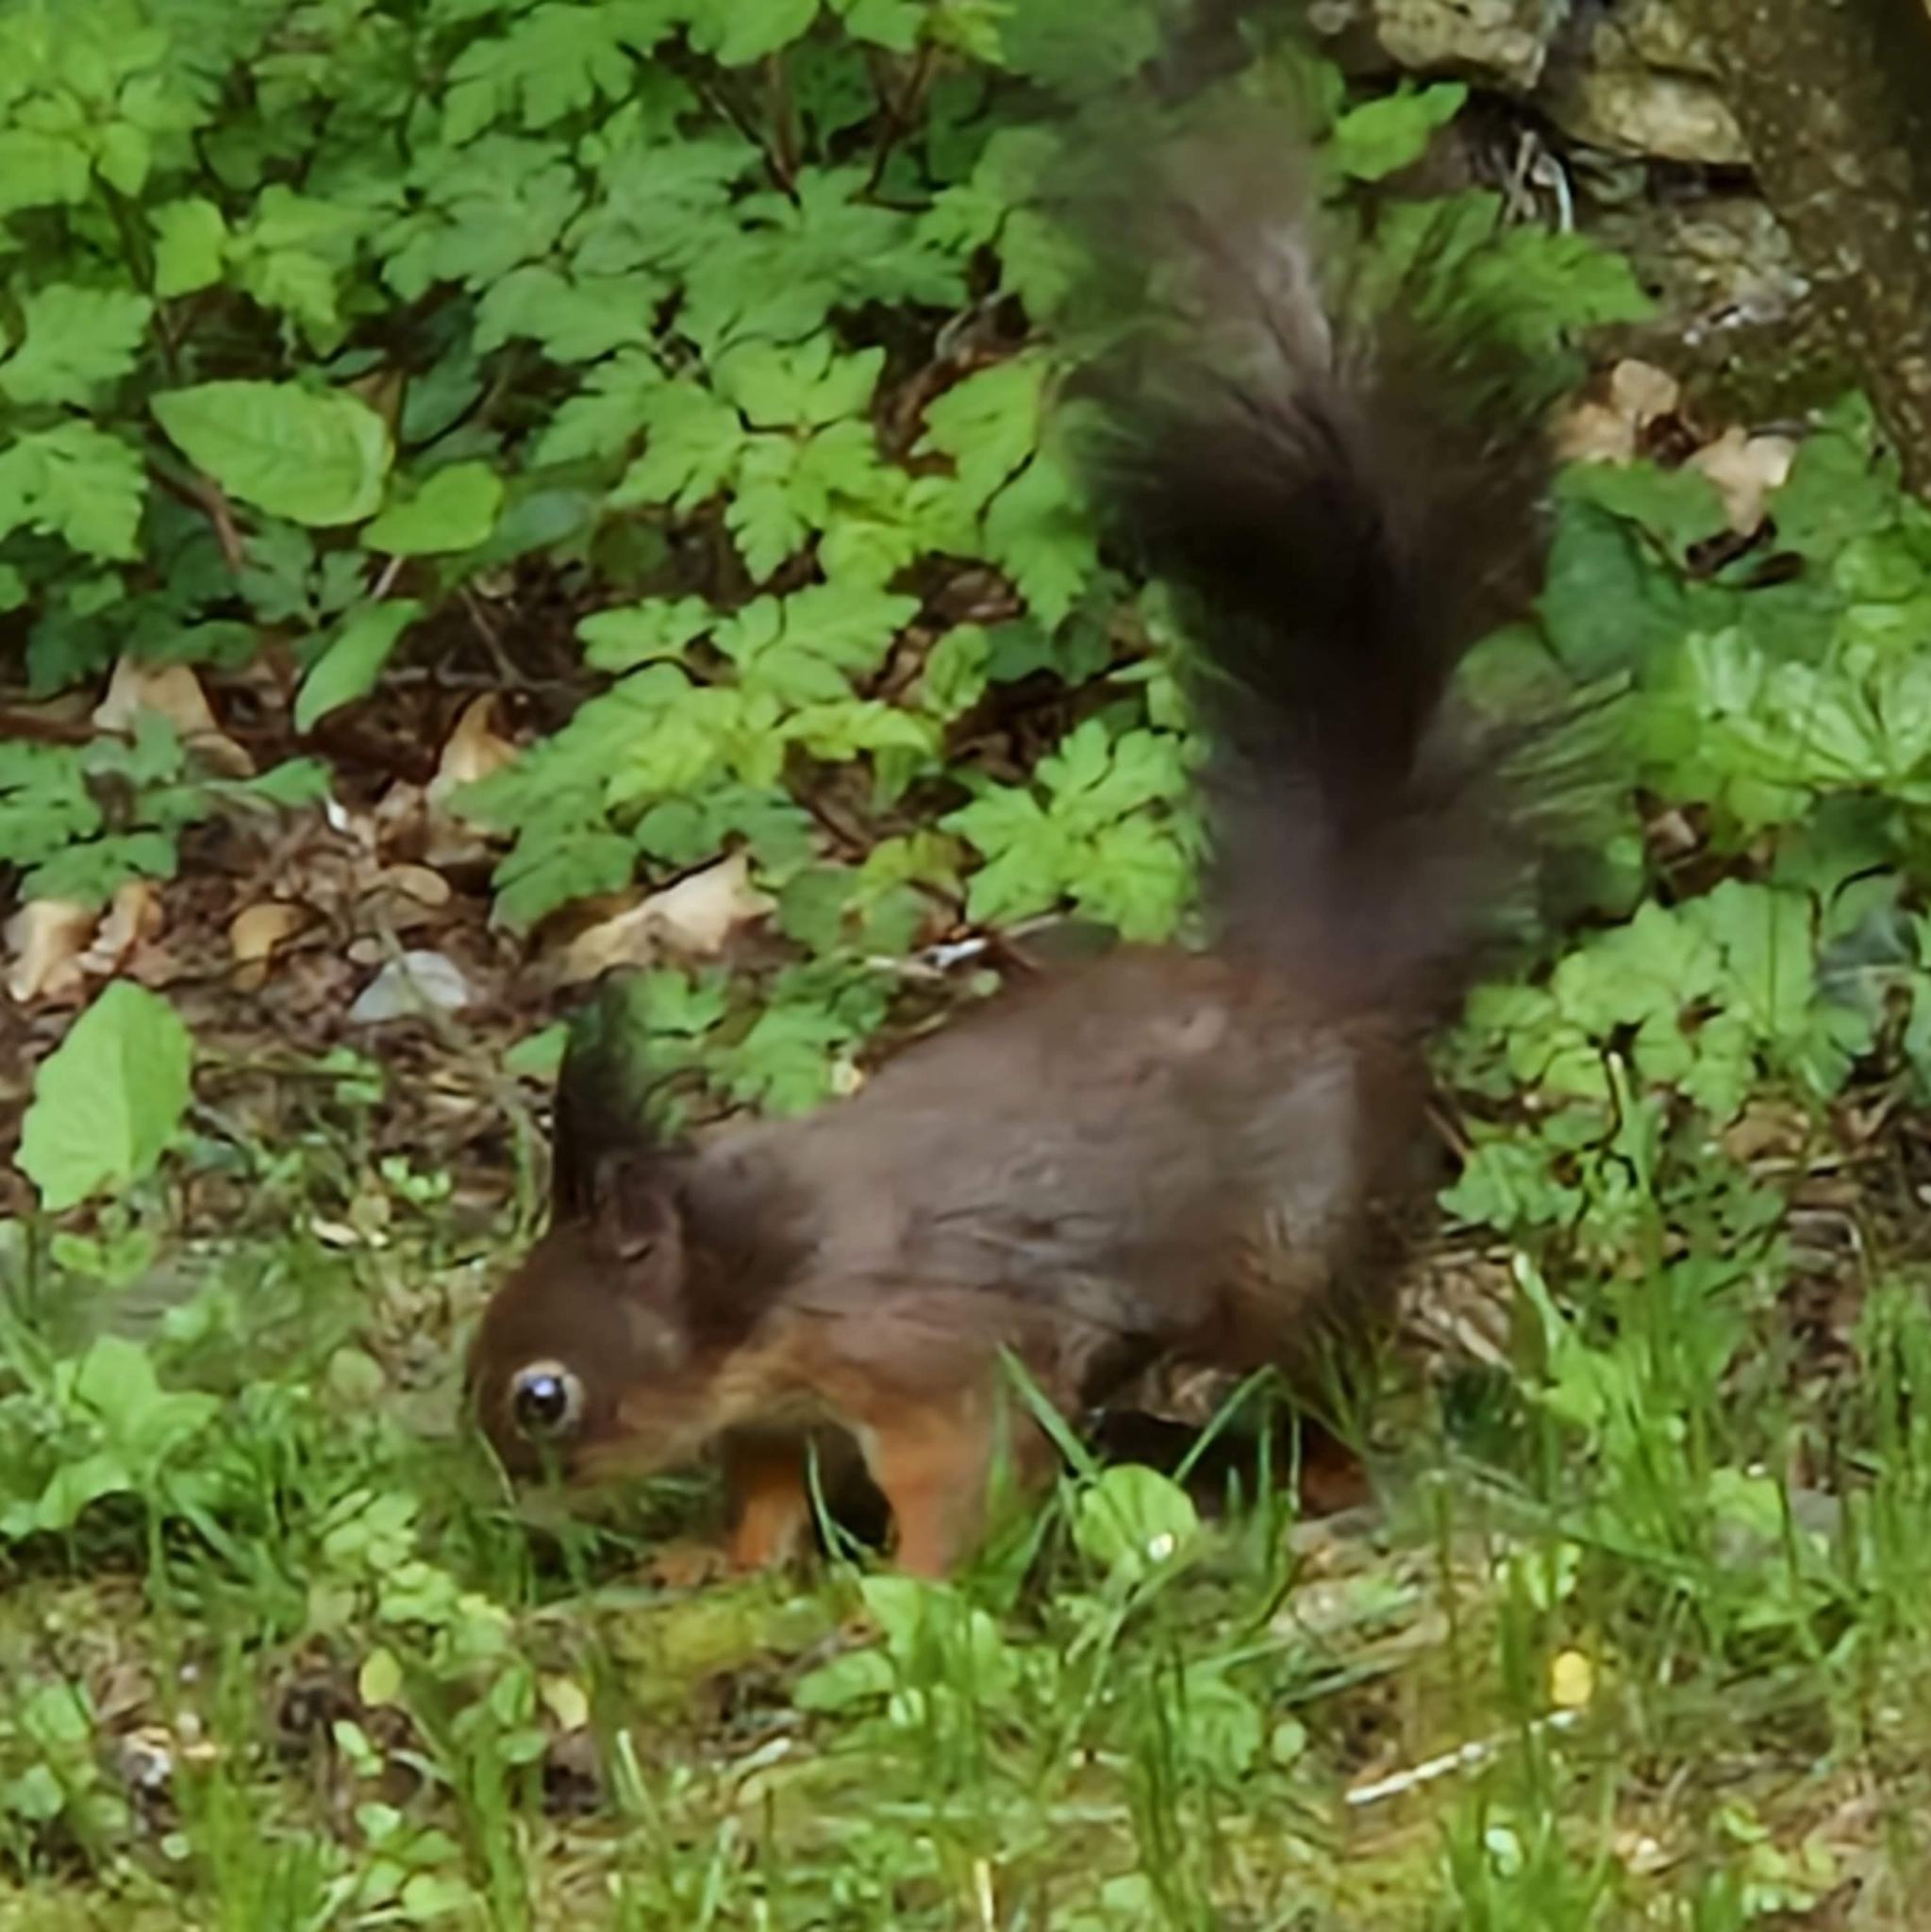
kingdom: Animalia
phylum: Chordata
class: Mammalia
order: Rodentia
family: Sciuridae
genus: Sciurus
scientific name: Sciurus vulgaris
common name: Eurasian red squirrel
